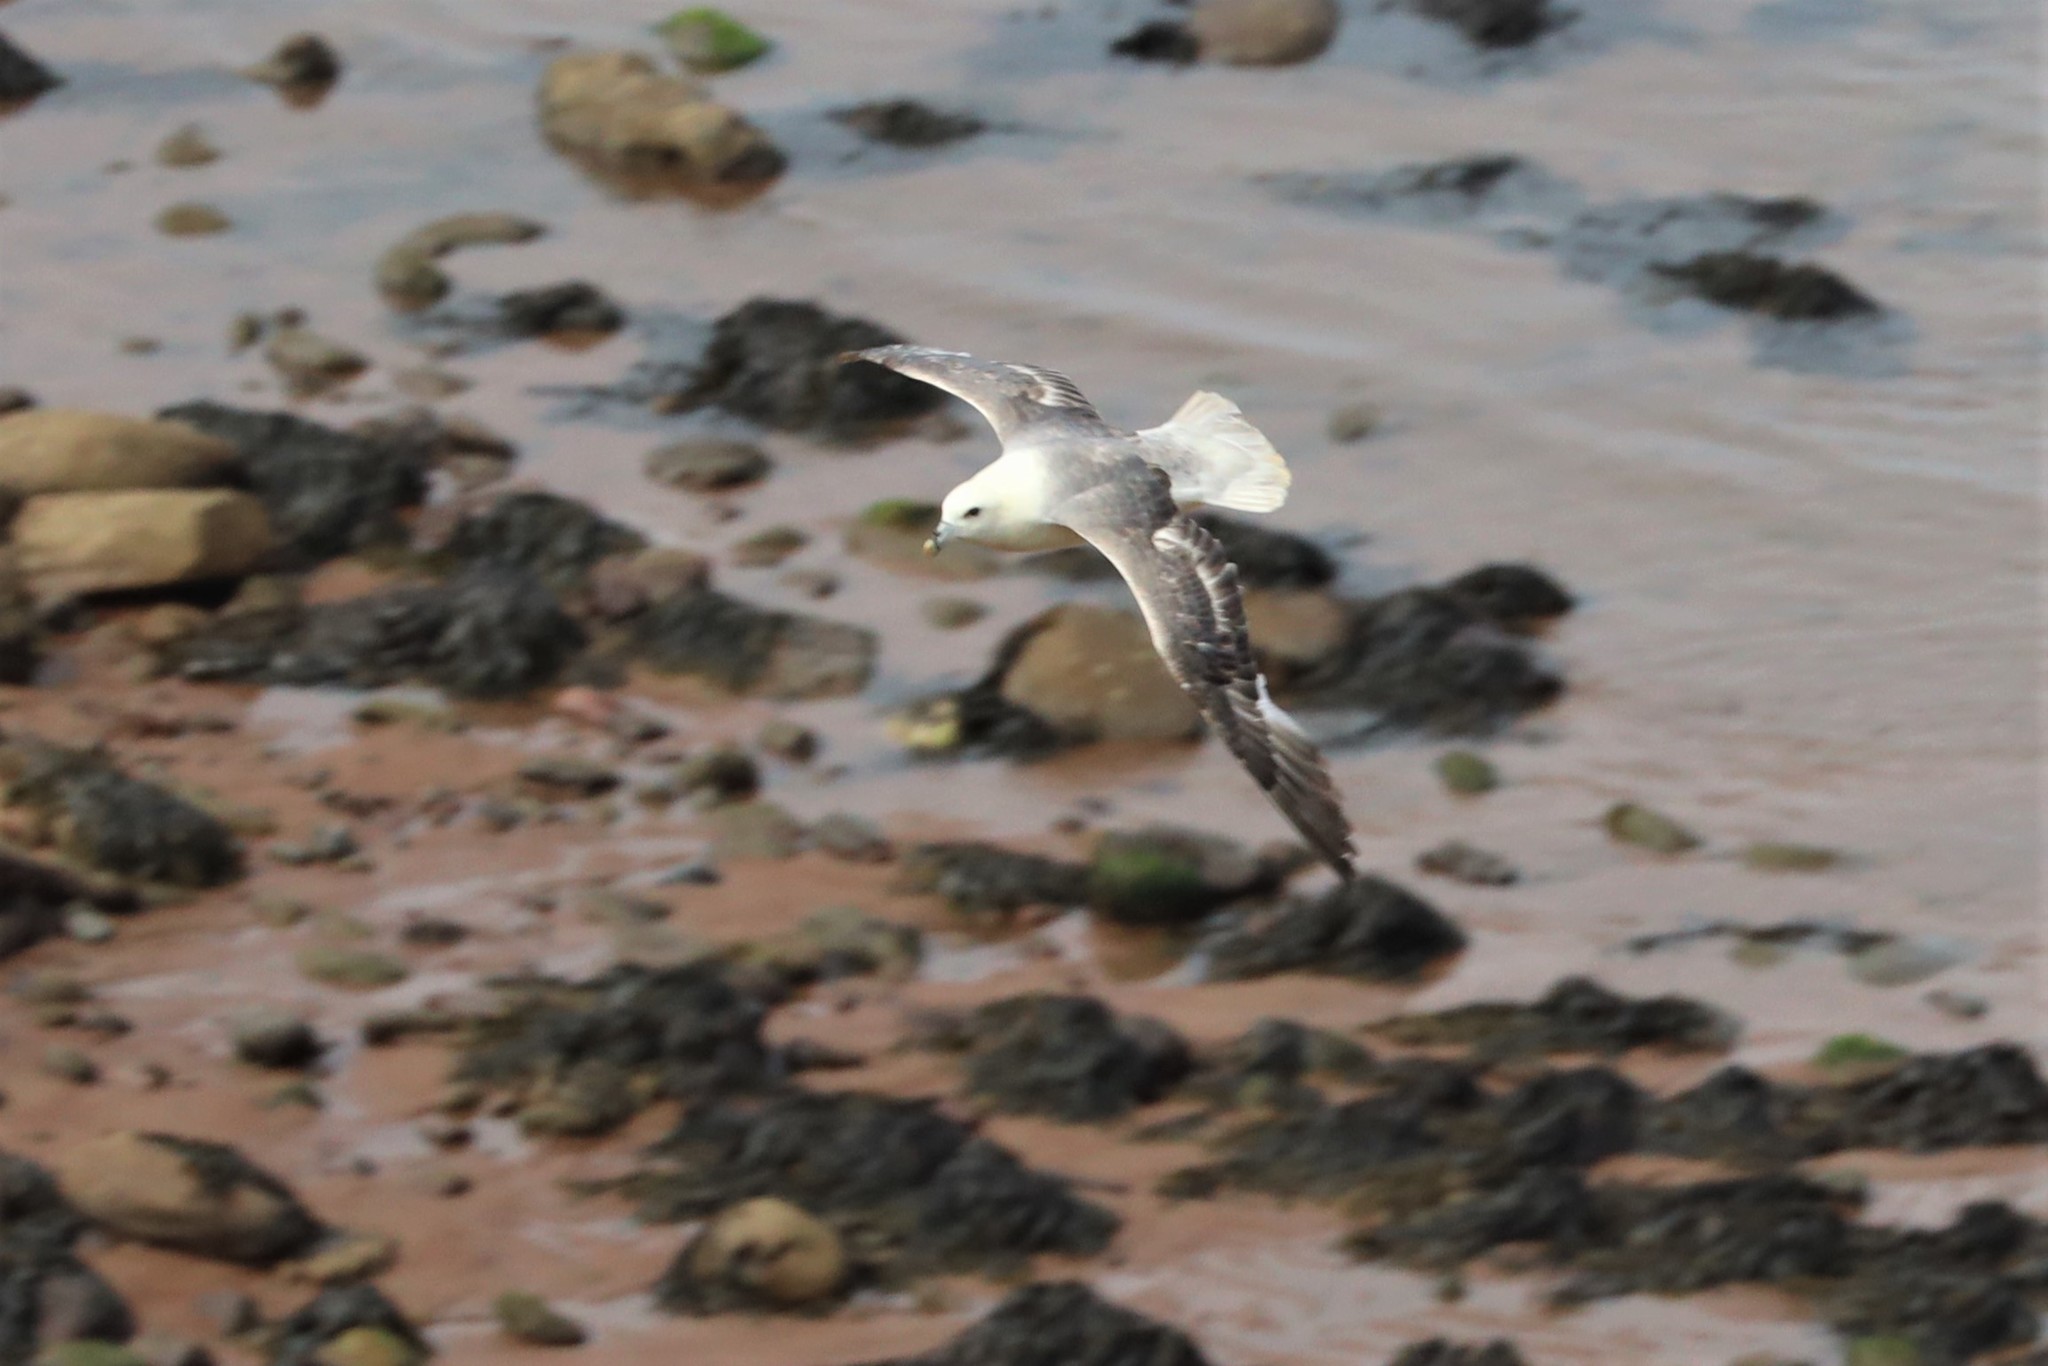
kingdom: Animalia
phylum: Chordata
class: Aves
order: Procellariiformes
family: Procellariidae
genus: Fulmarus
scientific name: Fulmarus glacialis
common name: Northern fulmar
